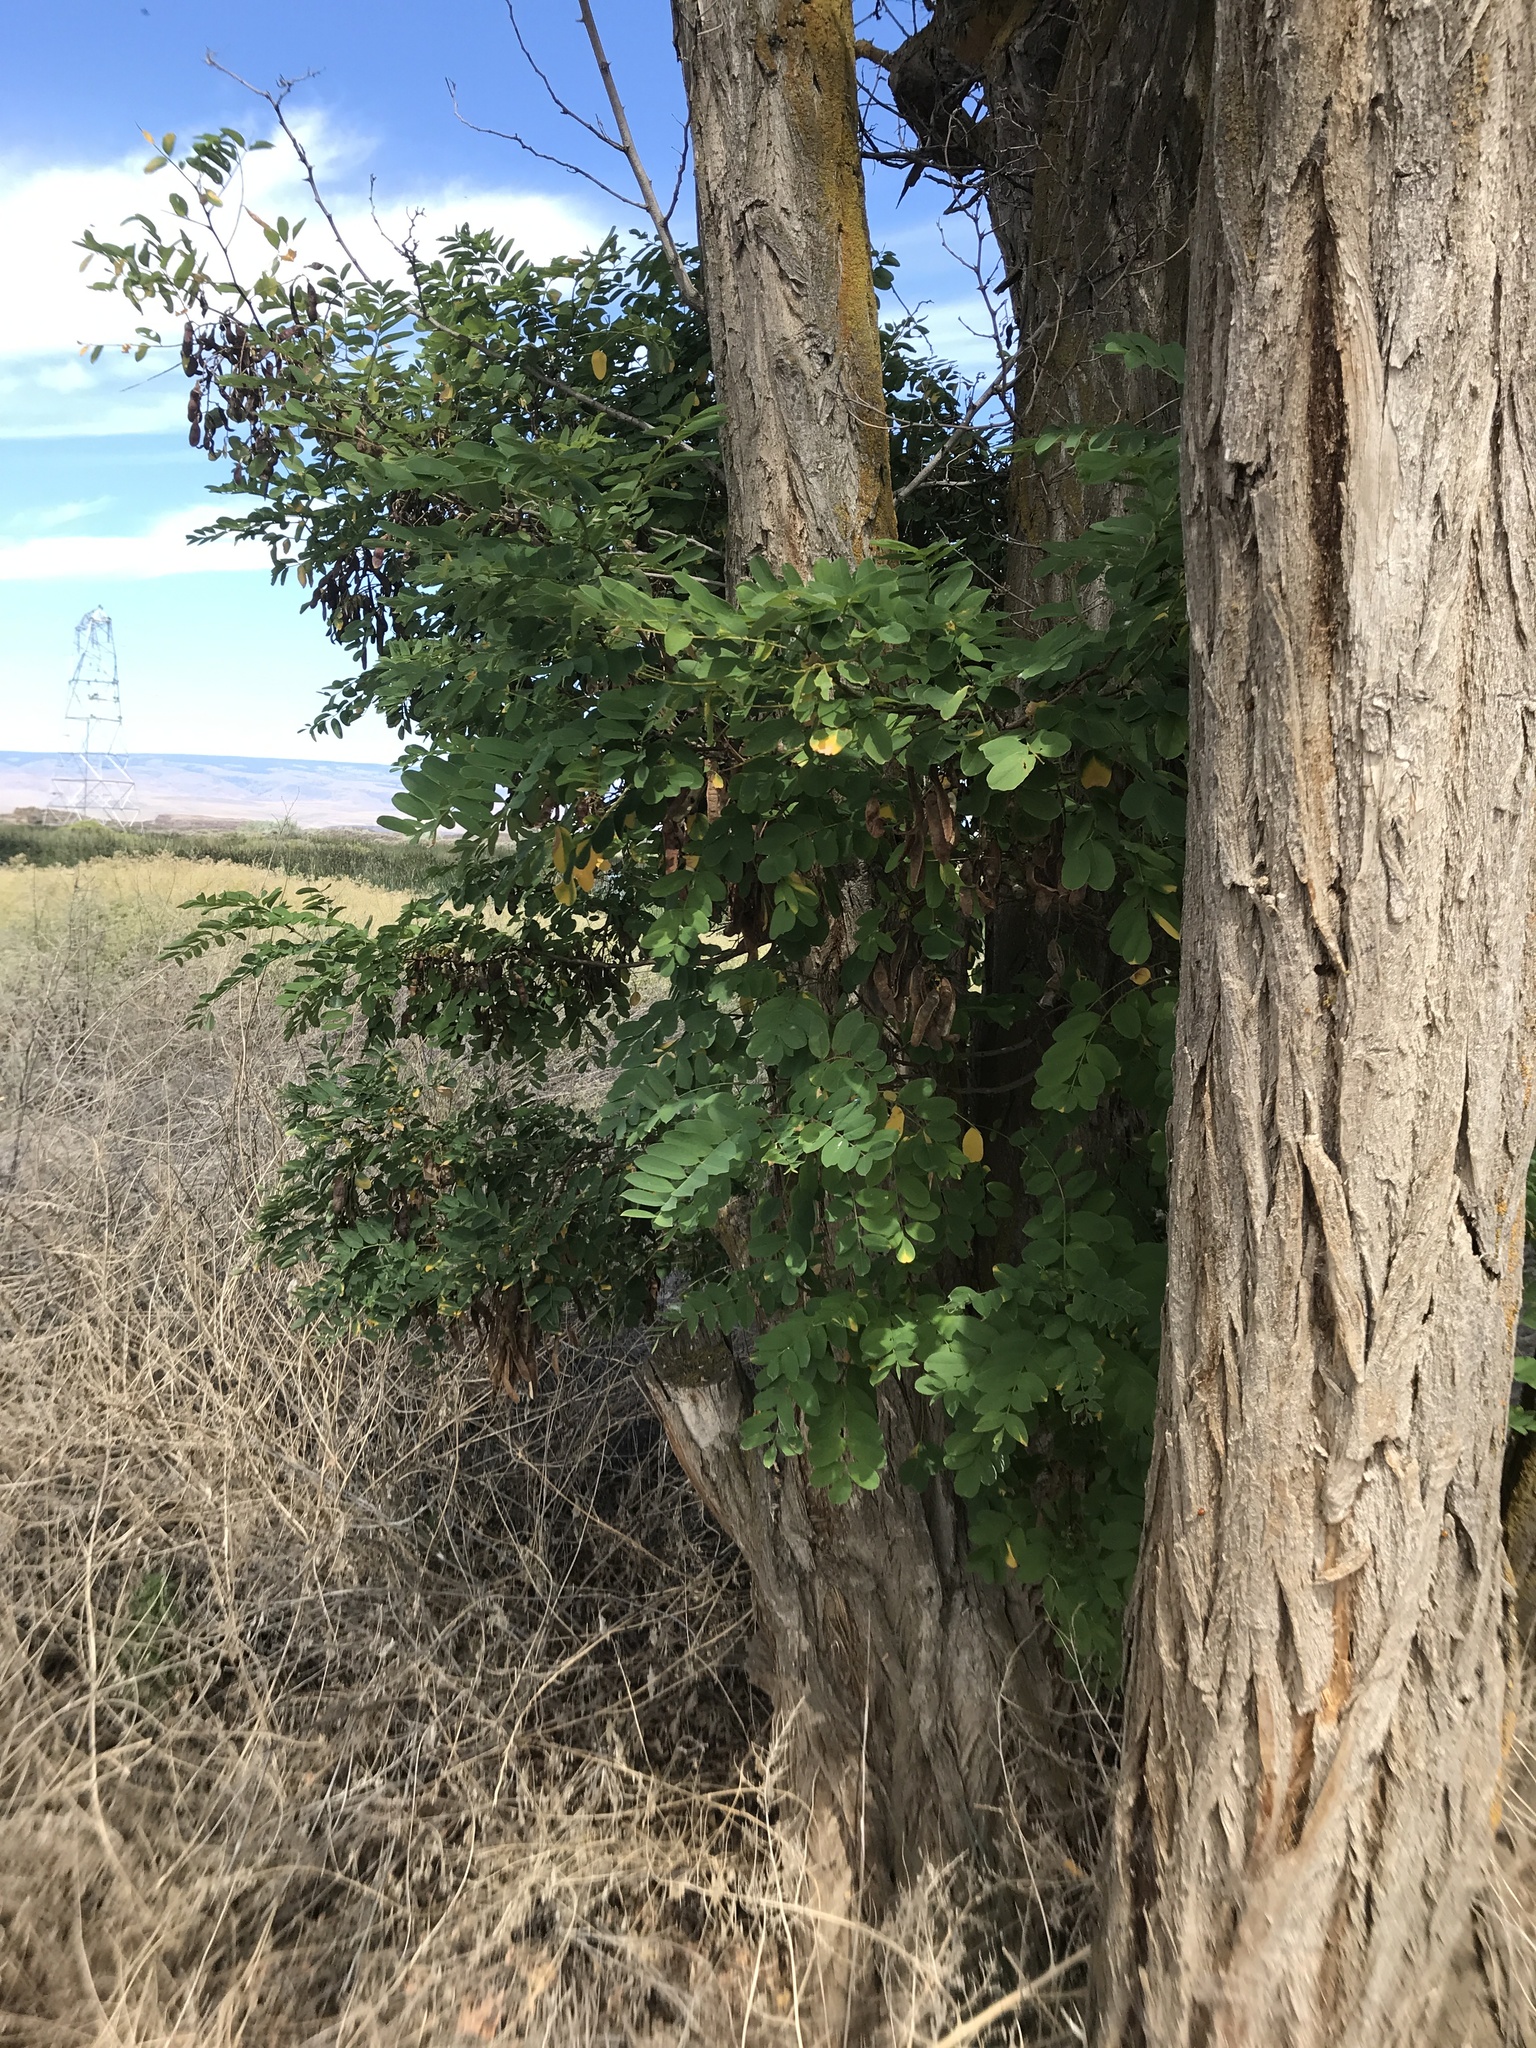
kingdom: Plantae
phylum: Tracheophyta
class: Magnoliopsida
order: Fabales
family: Fabaceae
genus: Robinia
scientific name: Robinia pseudoacacia
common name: Black locust
